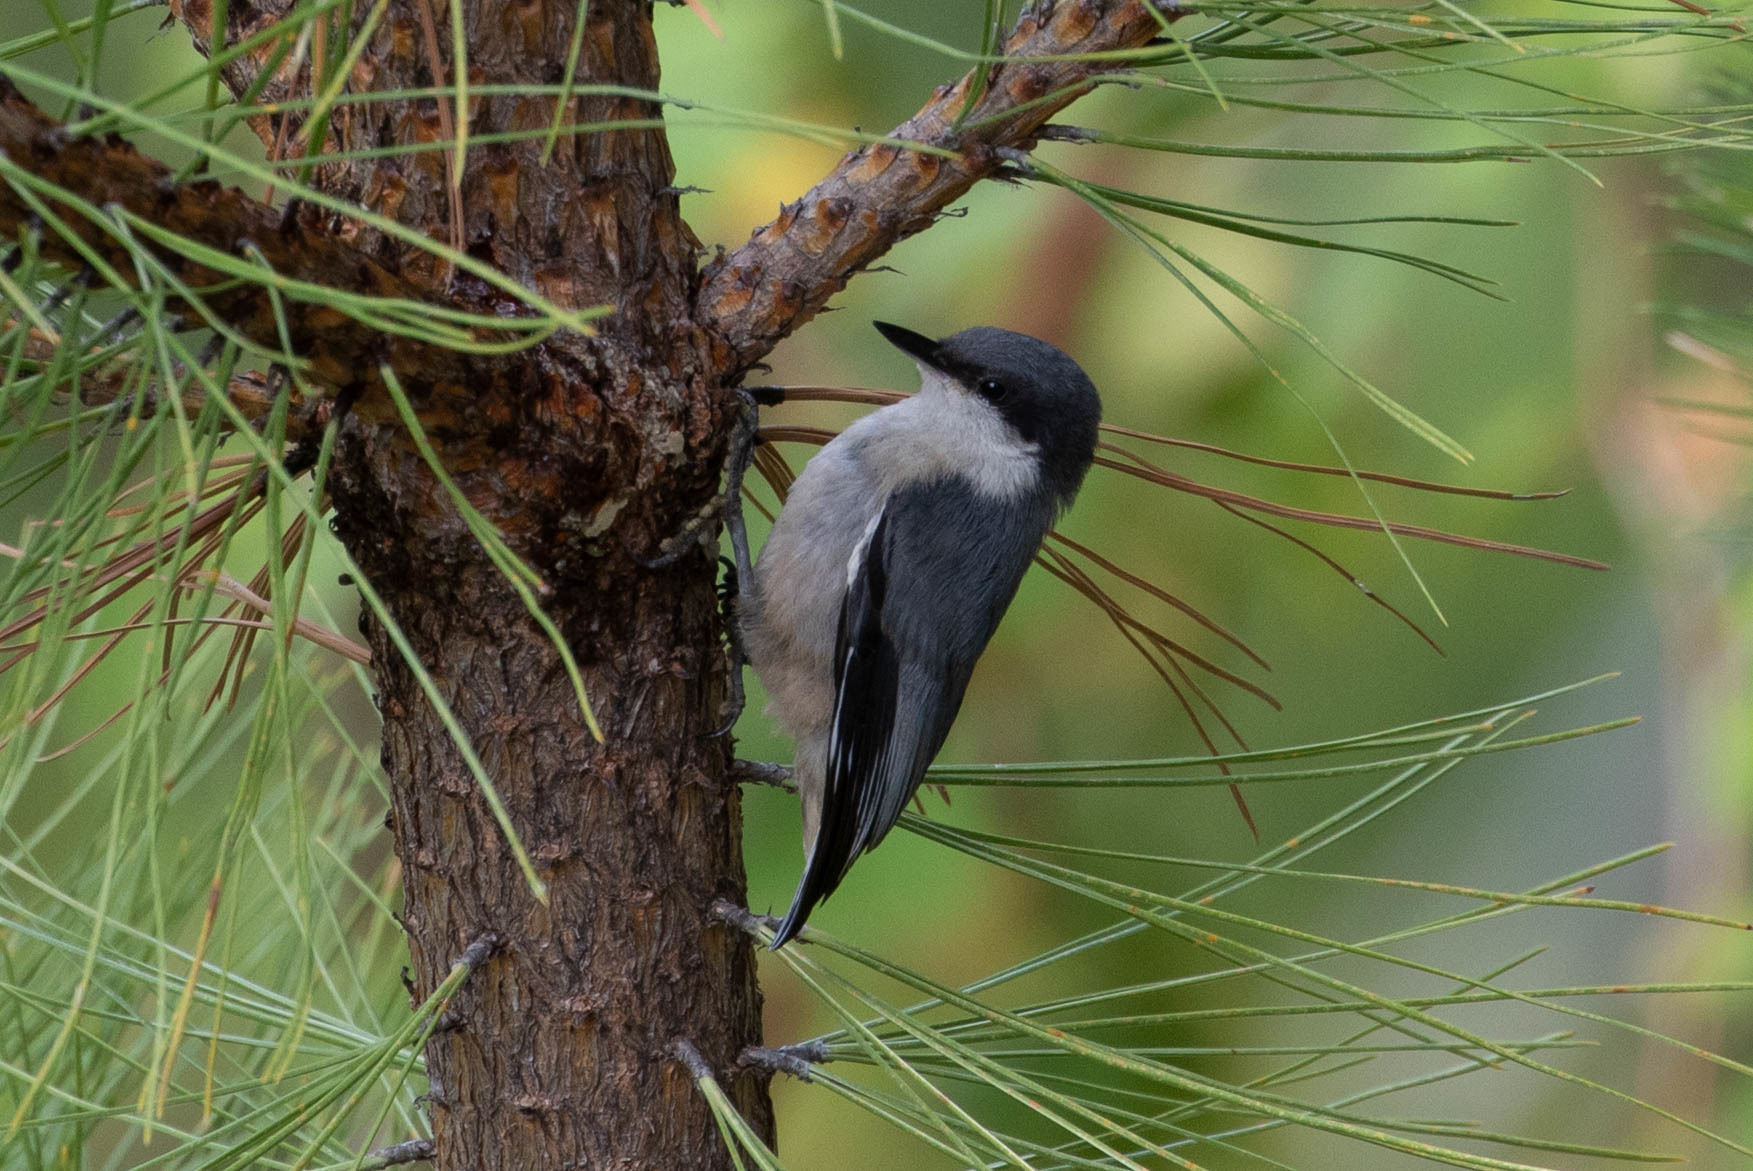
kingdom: Animalia
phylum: Chordata
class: Aves
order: Passeriformes
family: Sittidae
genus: Sitta
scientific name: Sitta pygmaea
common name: Pygmy nuthatch
